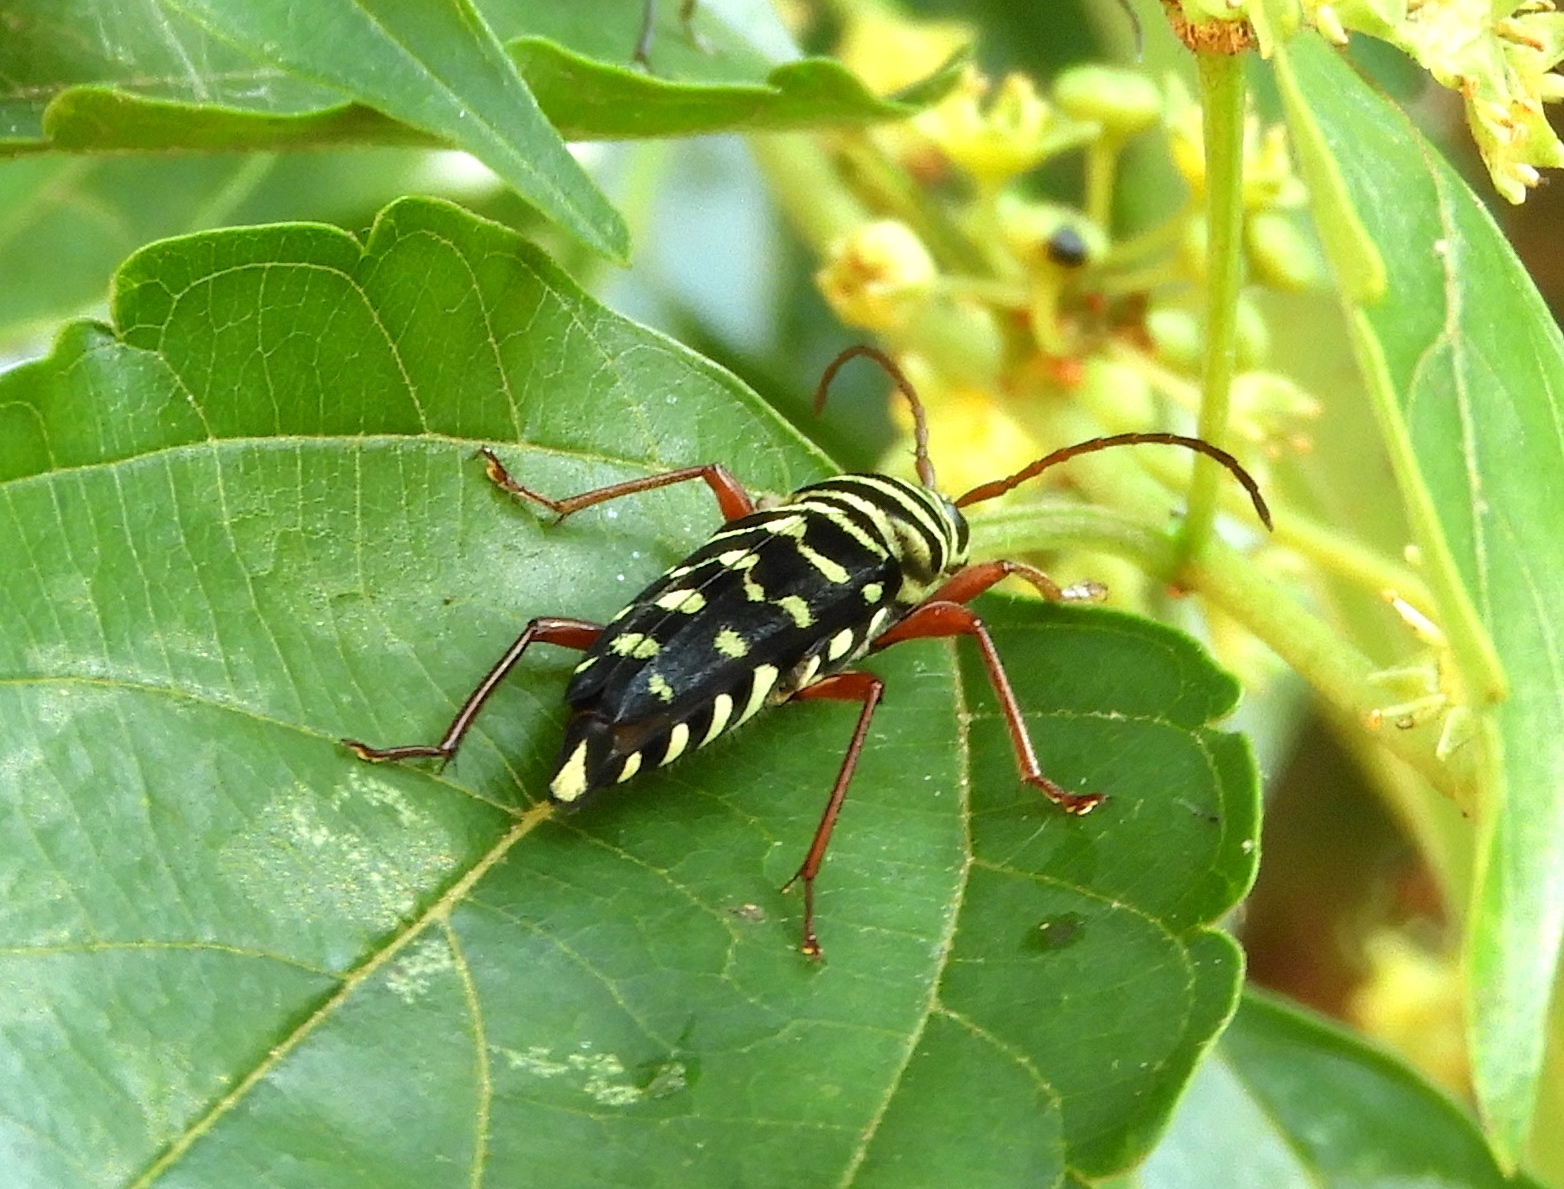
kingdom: Animalia
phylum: Arthropoda
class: Insecta
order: Coleoptera
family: Cerambycidae
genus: Placosternus
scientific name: Placosternus difficilis
